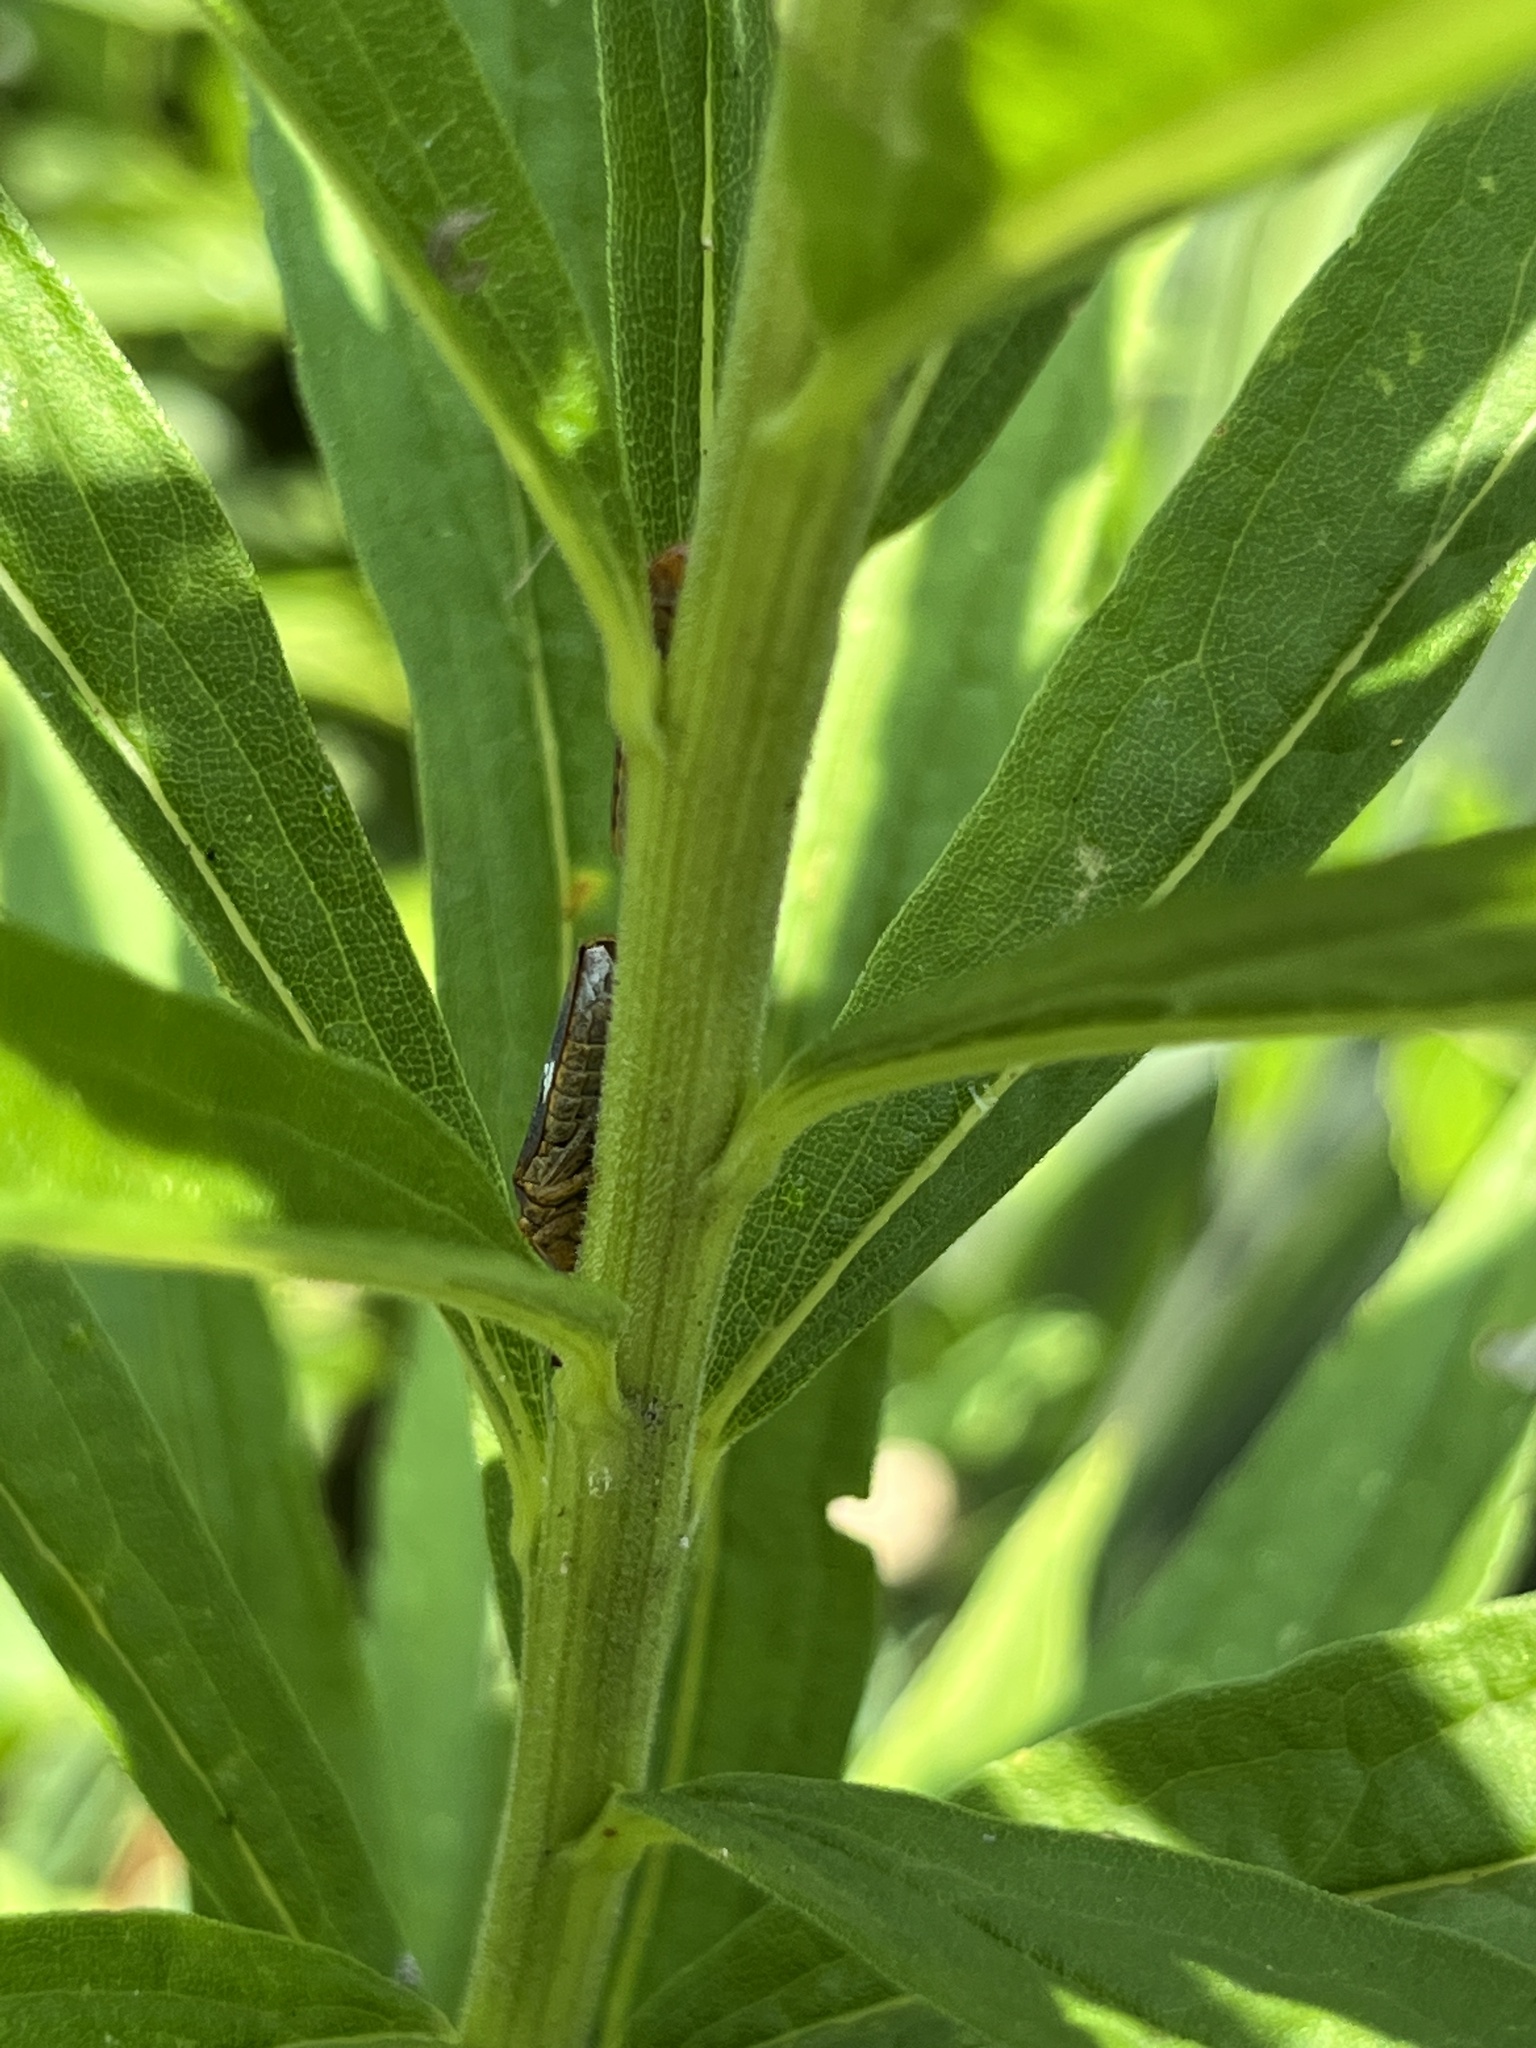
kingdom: Animalia
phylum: Arthropoda
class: Insecta
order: Hemiptera
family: Cicadellidae
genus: Oncometopia
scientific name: Oncometopia orbona
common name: Broad-headed sharpshooter
